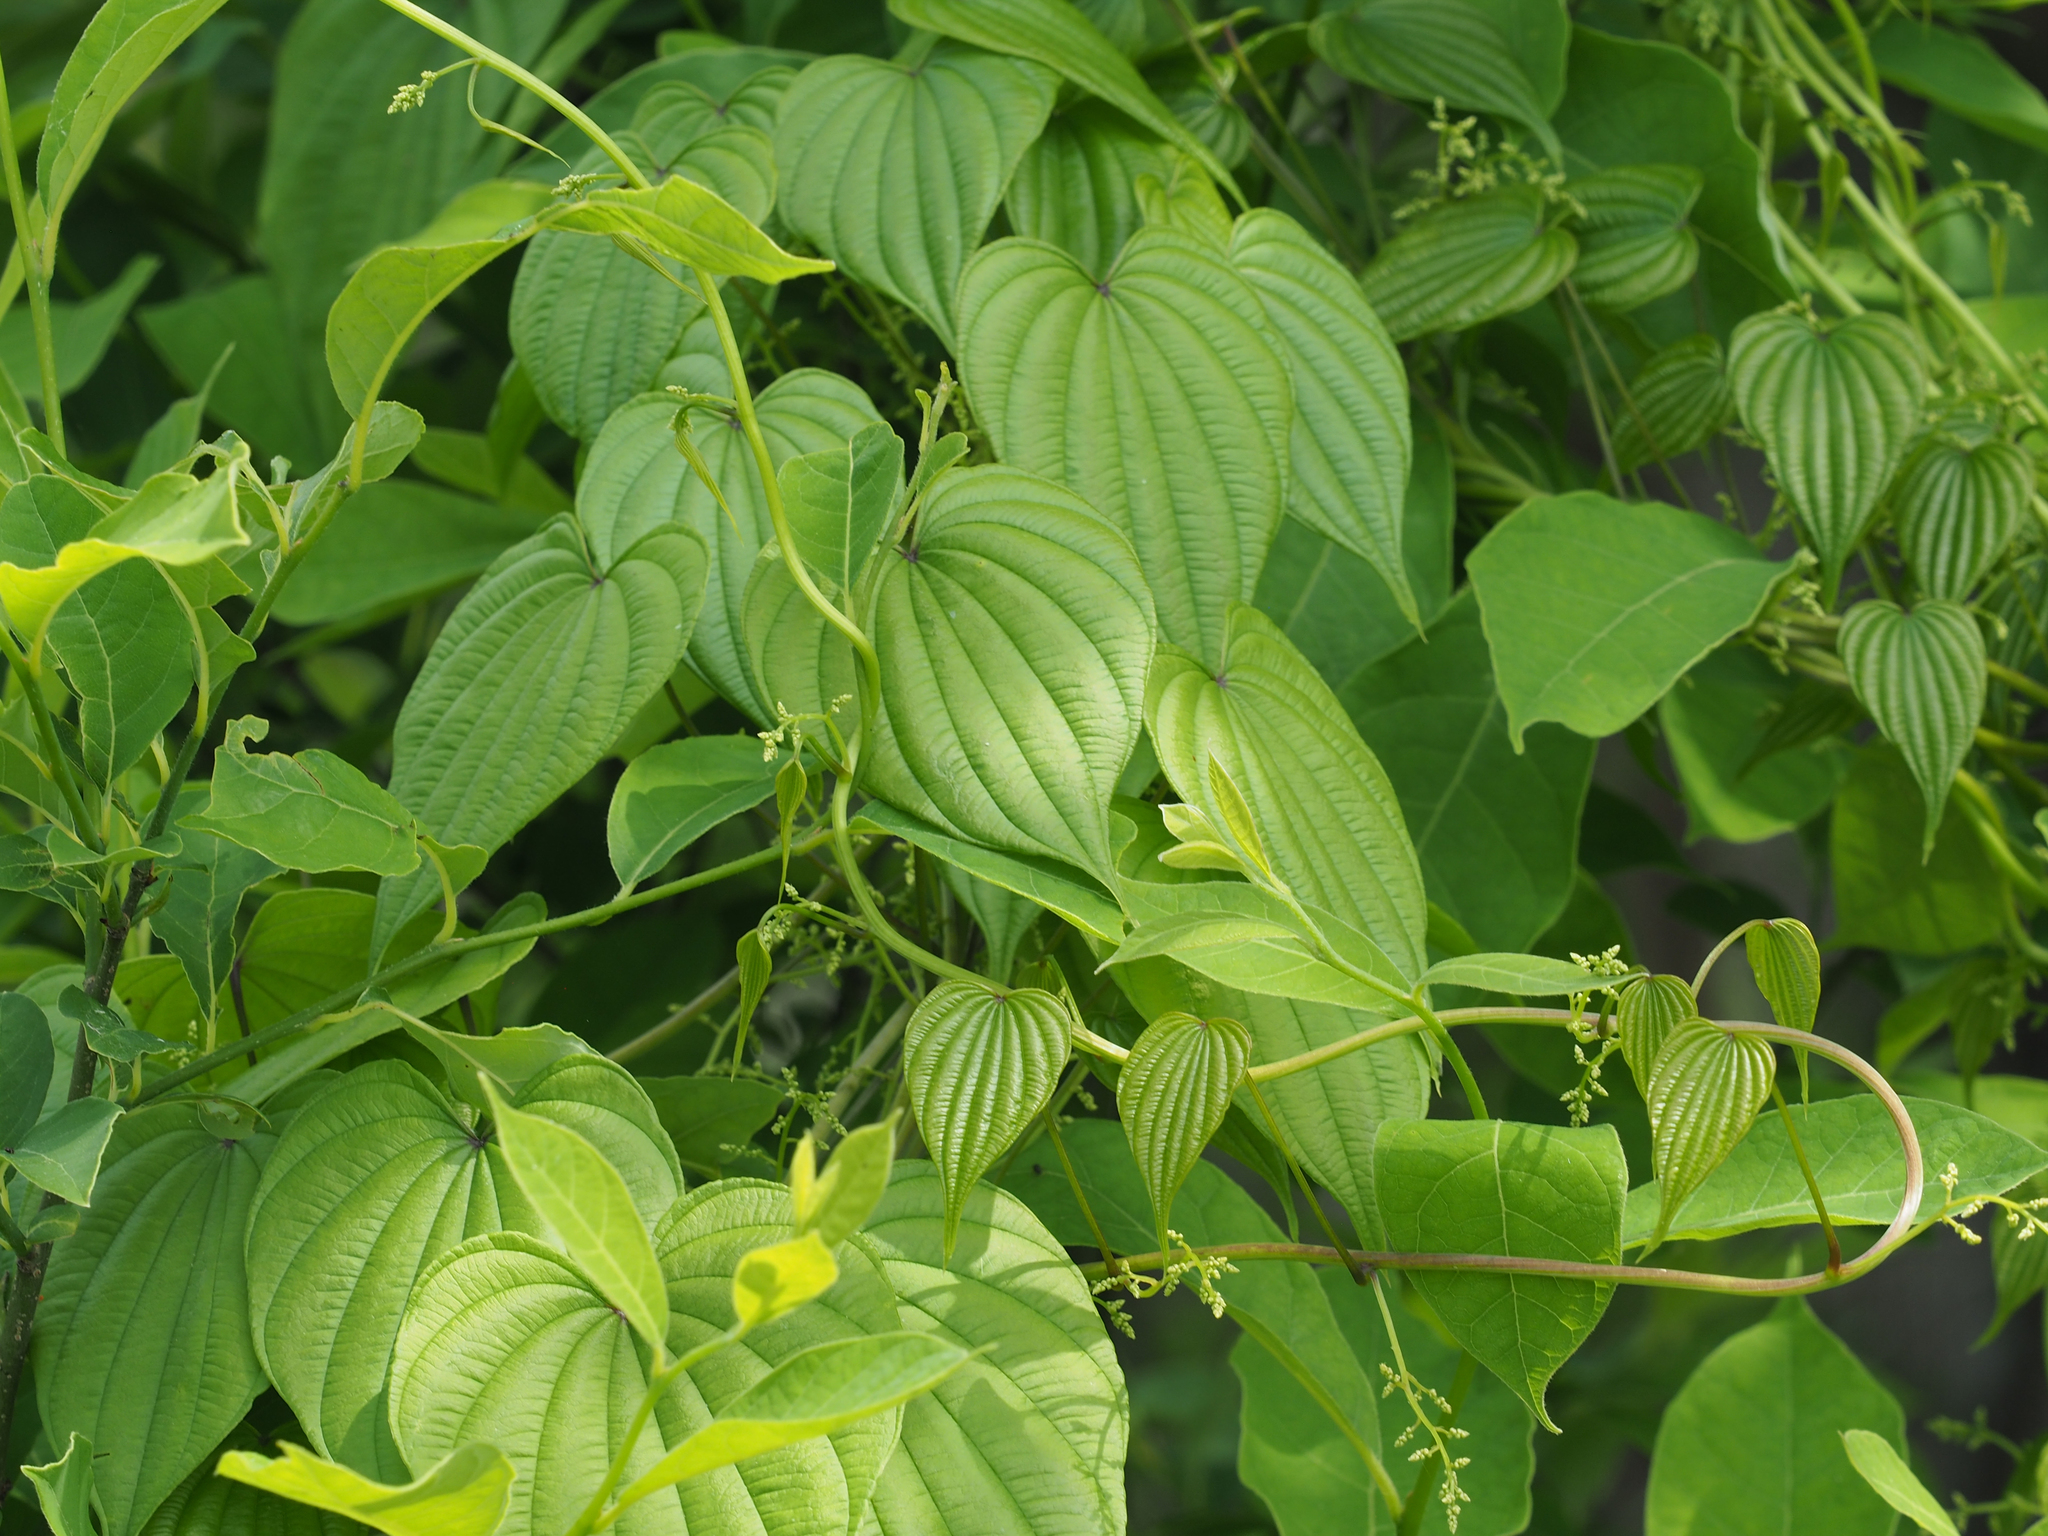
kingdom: Plantae
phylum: Tracheophyta
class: Liliopsida
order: Dioscoreales
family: Dioscoreaceae
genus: Dioscorea
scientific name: Dioscorea villosa
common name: Wild yam
